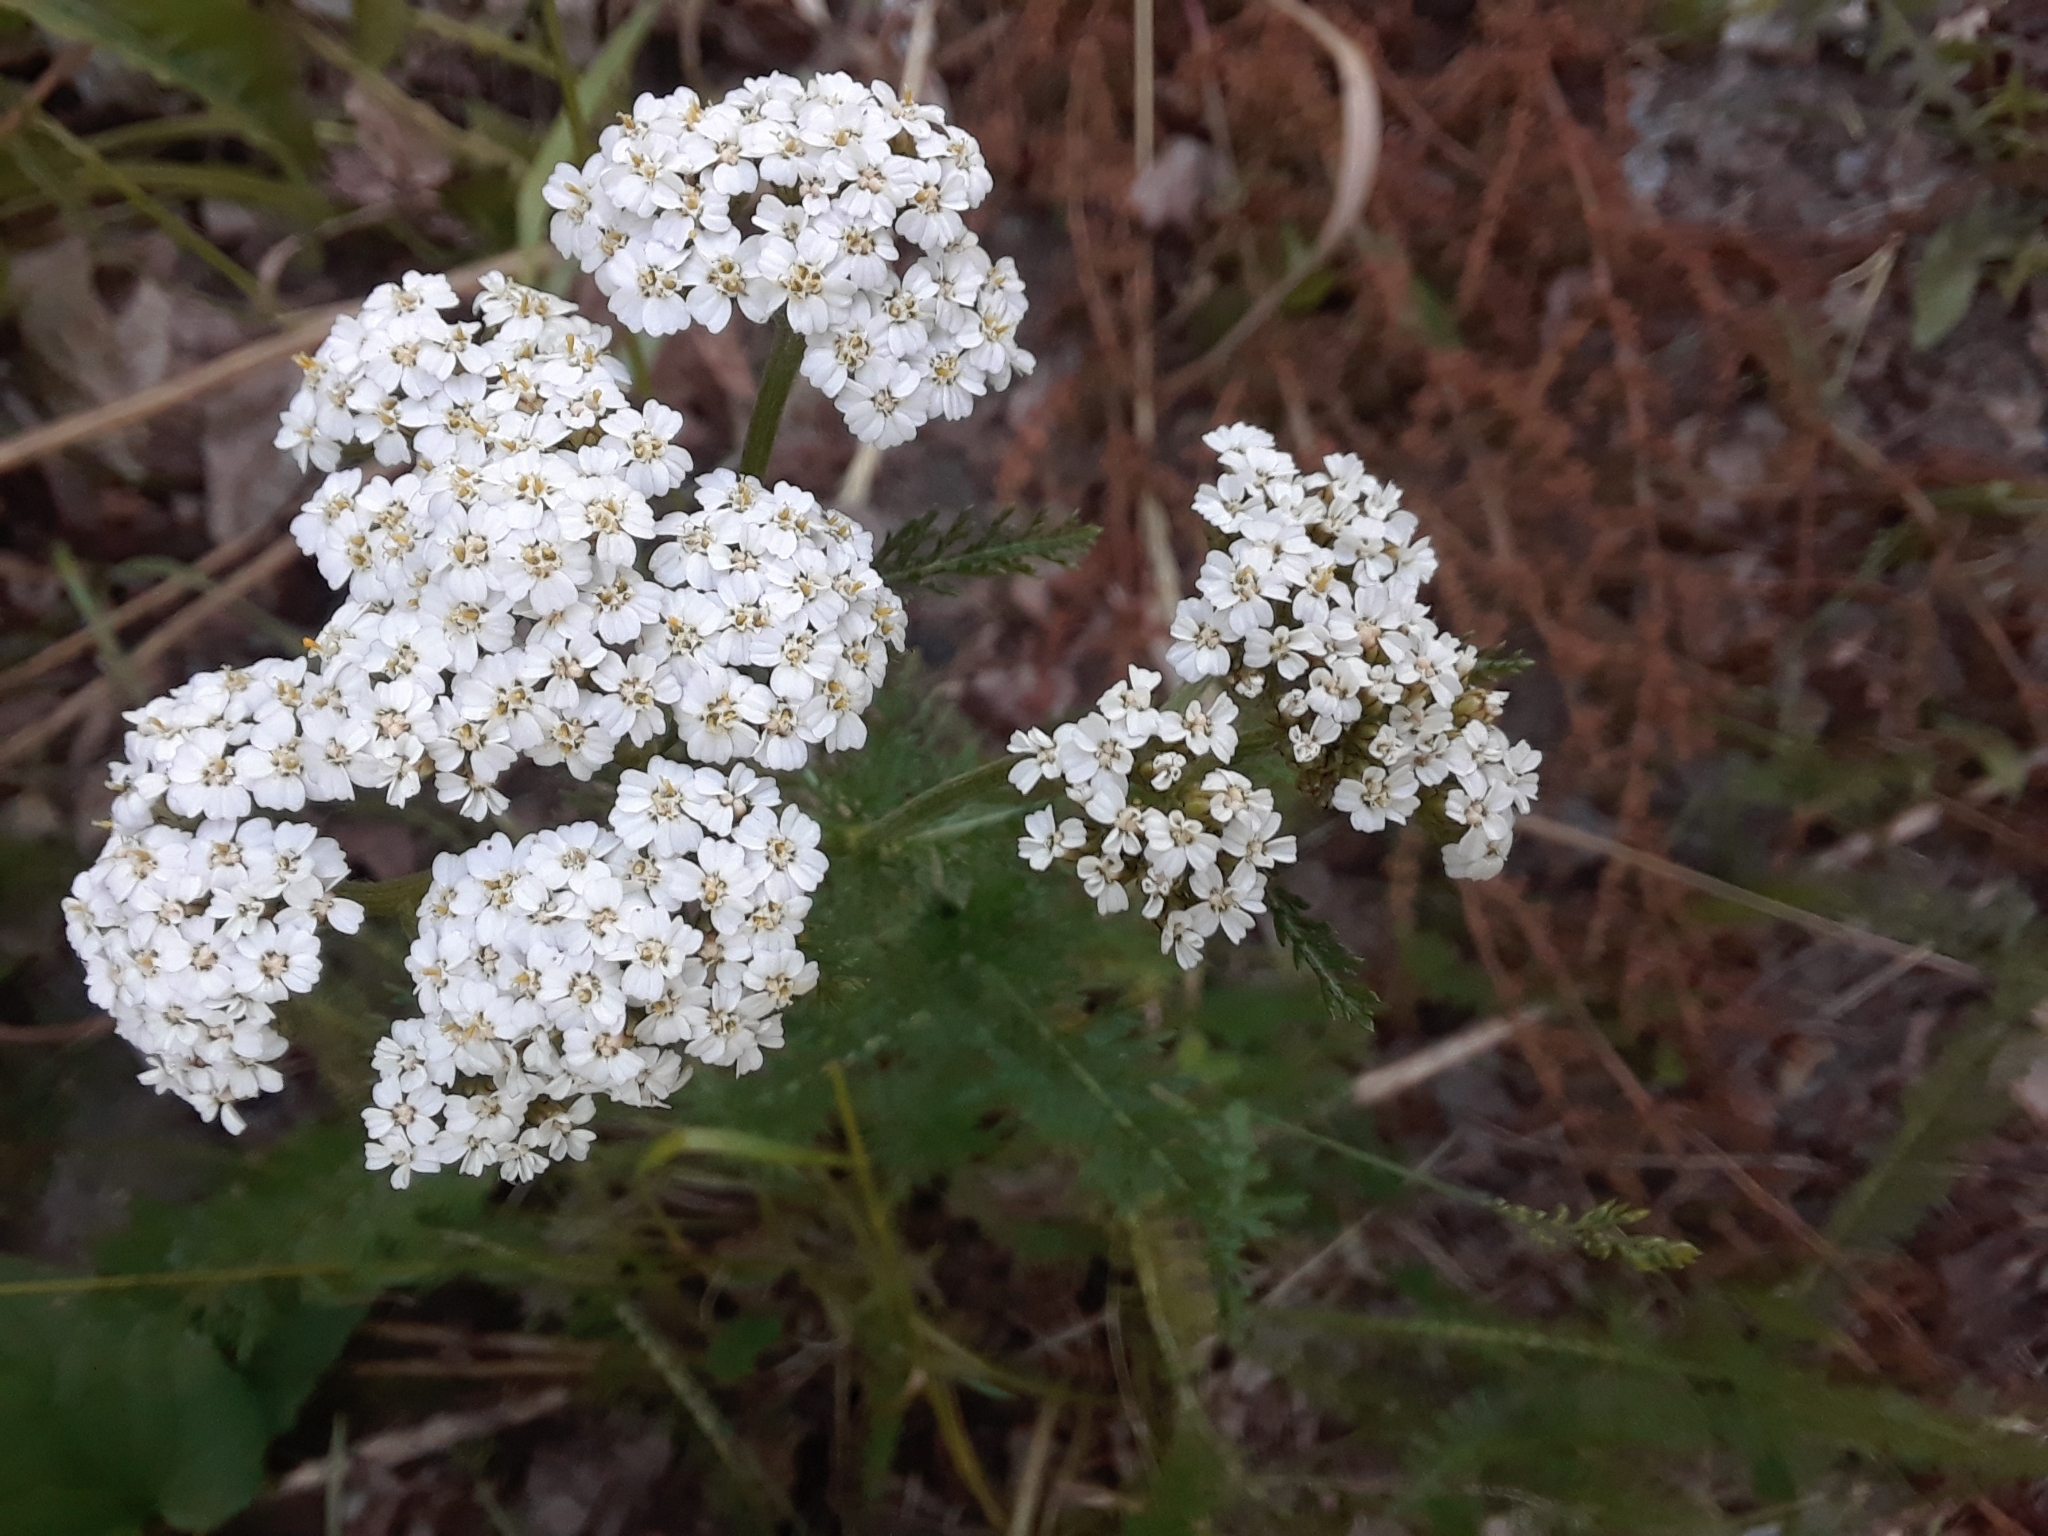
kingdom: Plantae
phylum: Tracheophyta
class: Magnoliopsida
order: Asterales
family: Asteraceae
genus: Achillea
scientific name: Achillea millefolium
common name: Yarrow
